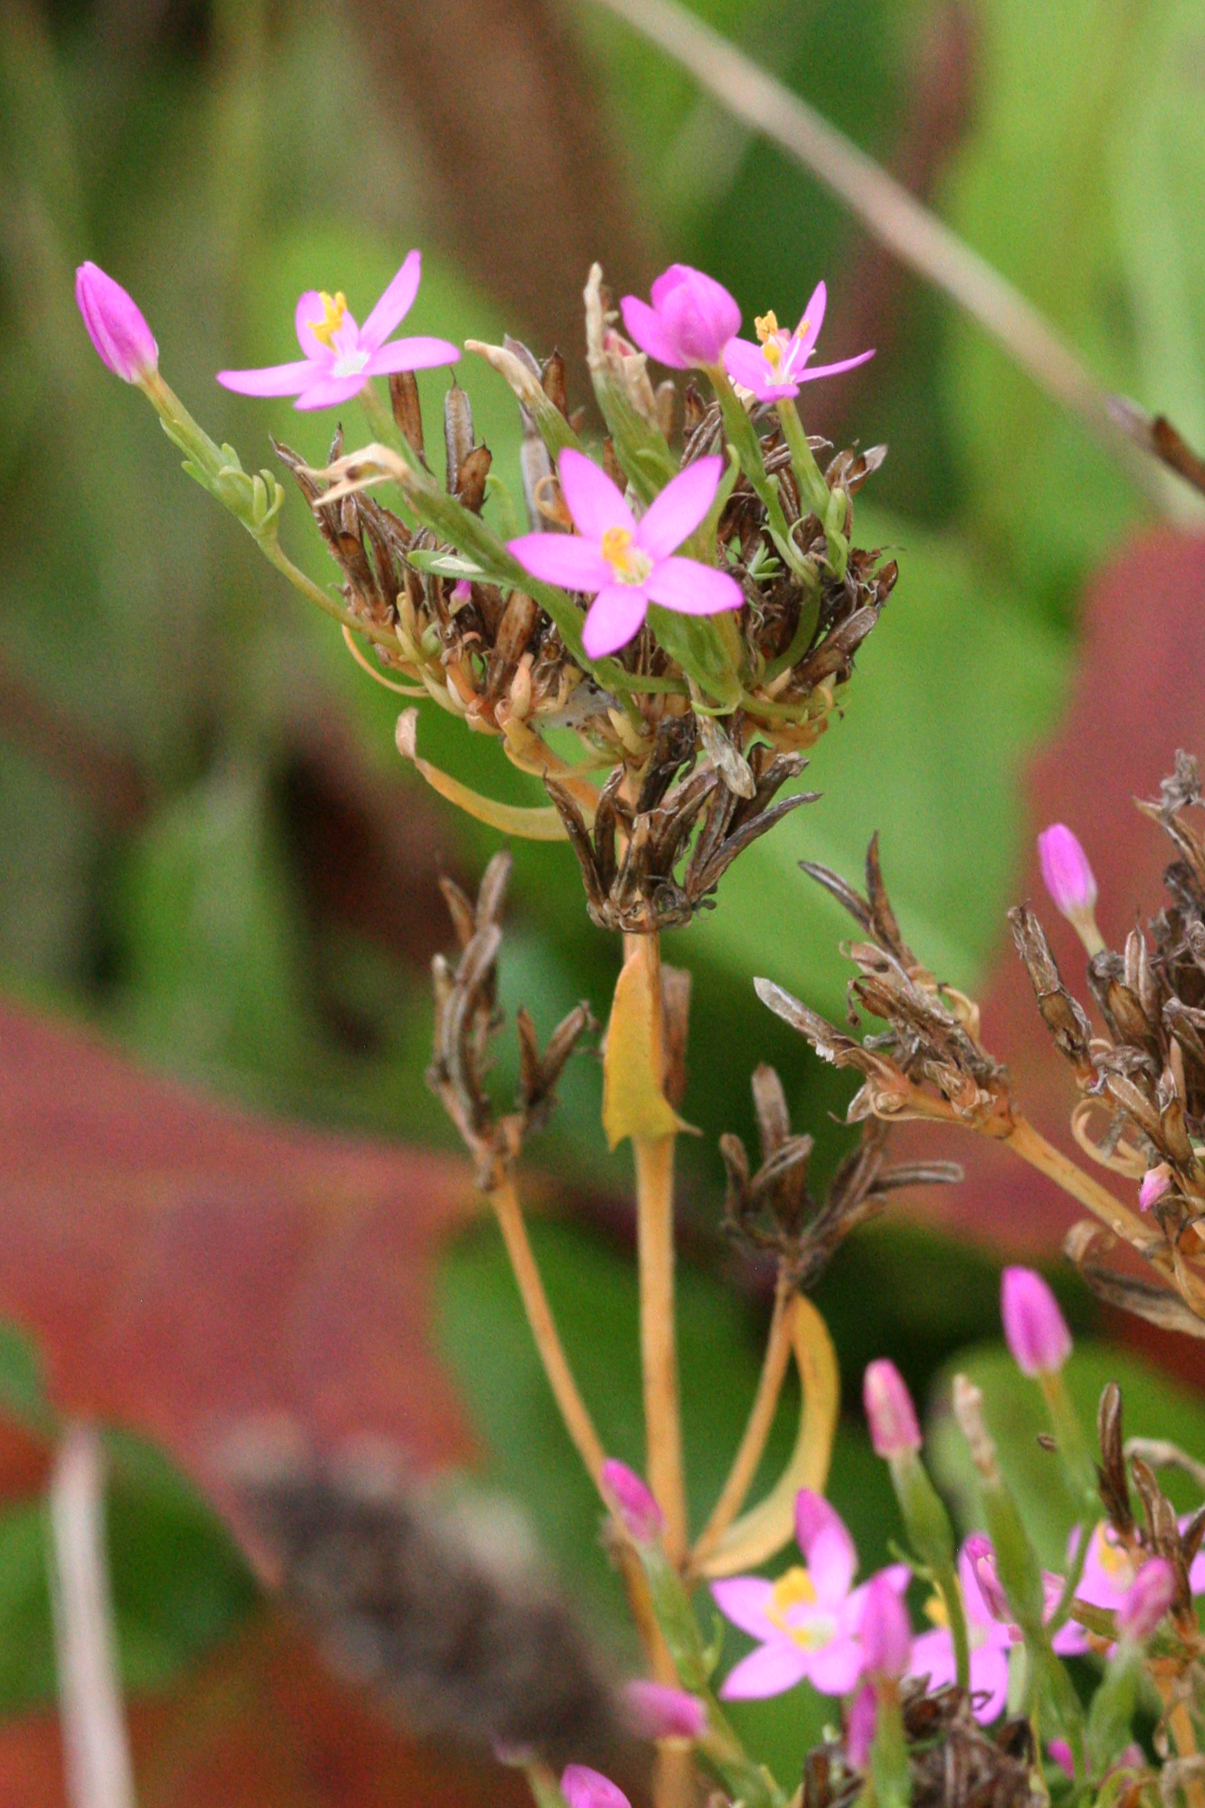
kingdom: Plantae
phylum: Tracheophyta
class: Magnoliopsida
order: Gentianales
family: Gentianaceae
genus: Centaurium
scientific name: Centaurium erythraea
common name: Common centaury
